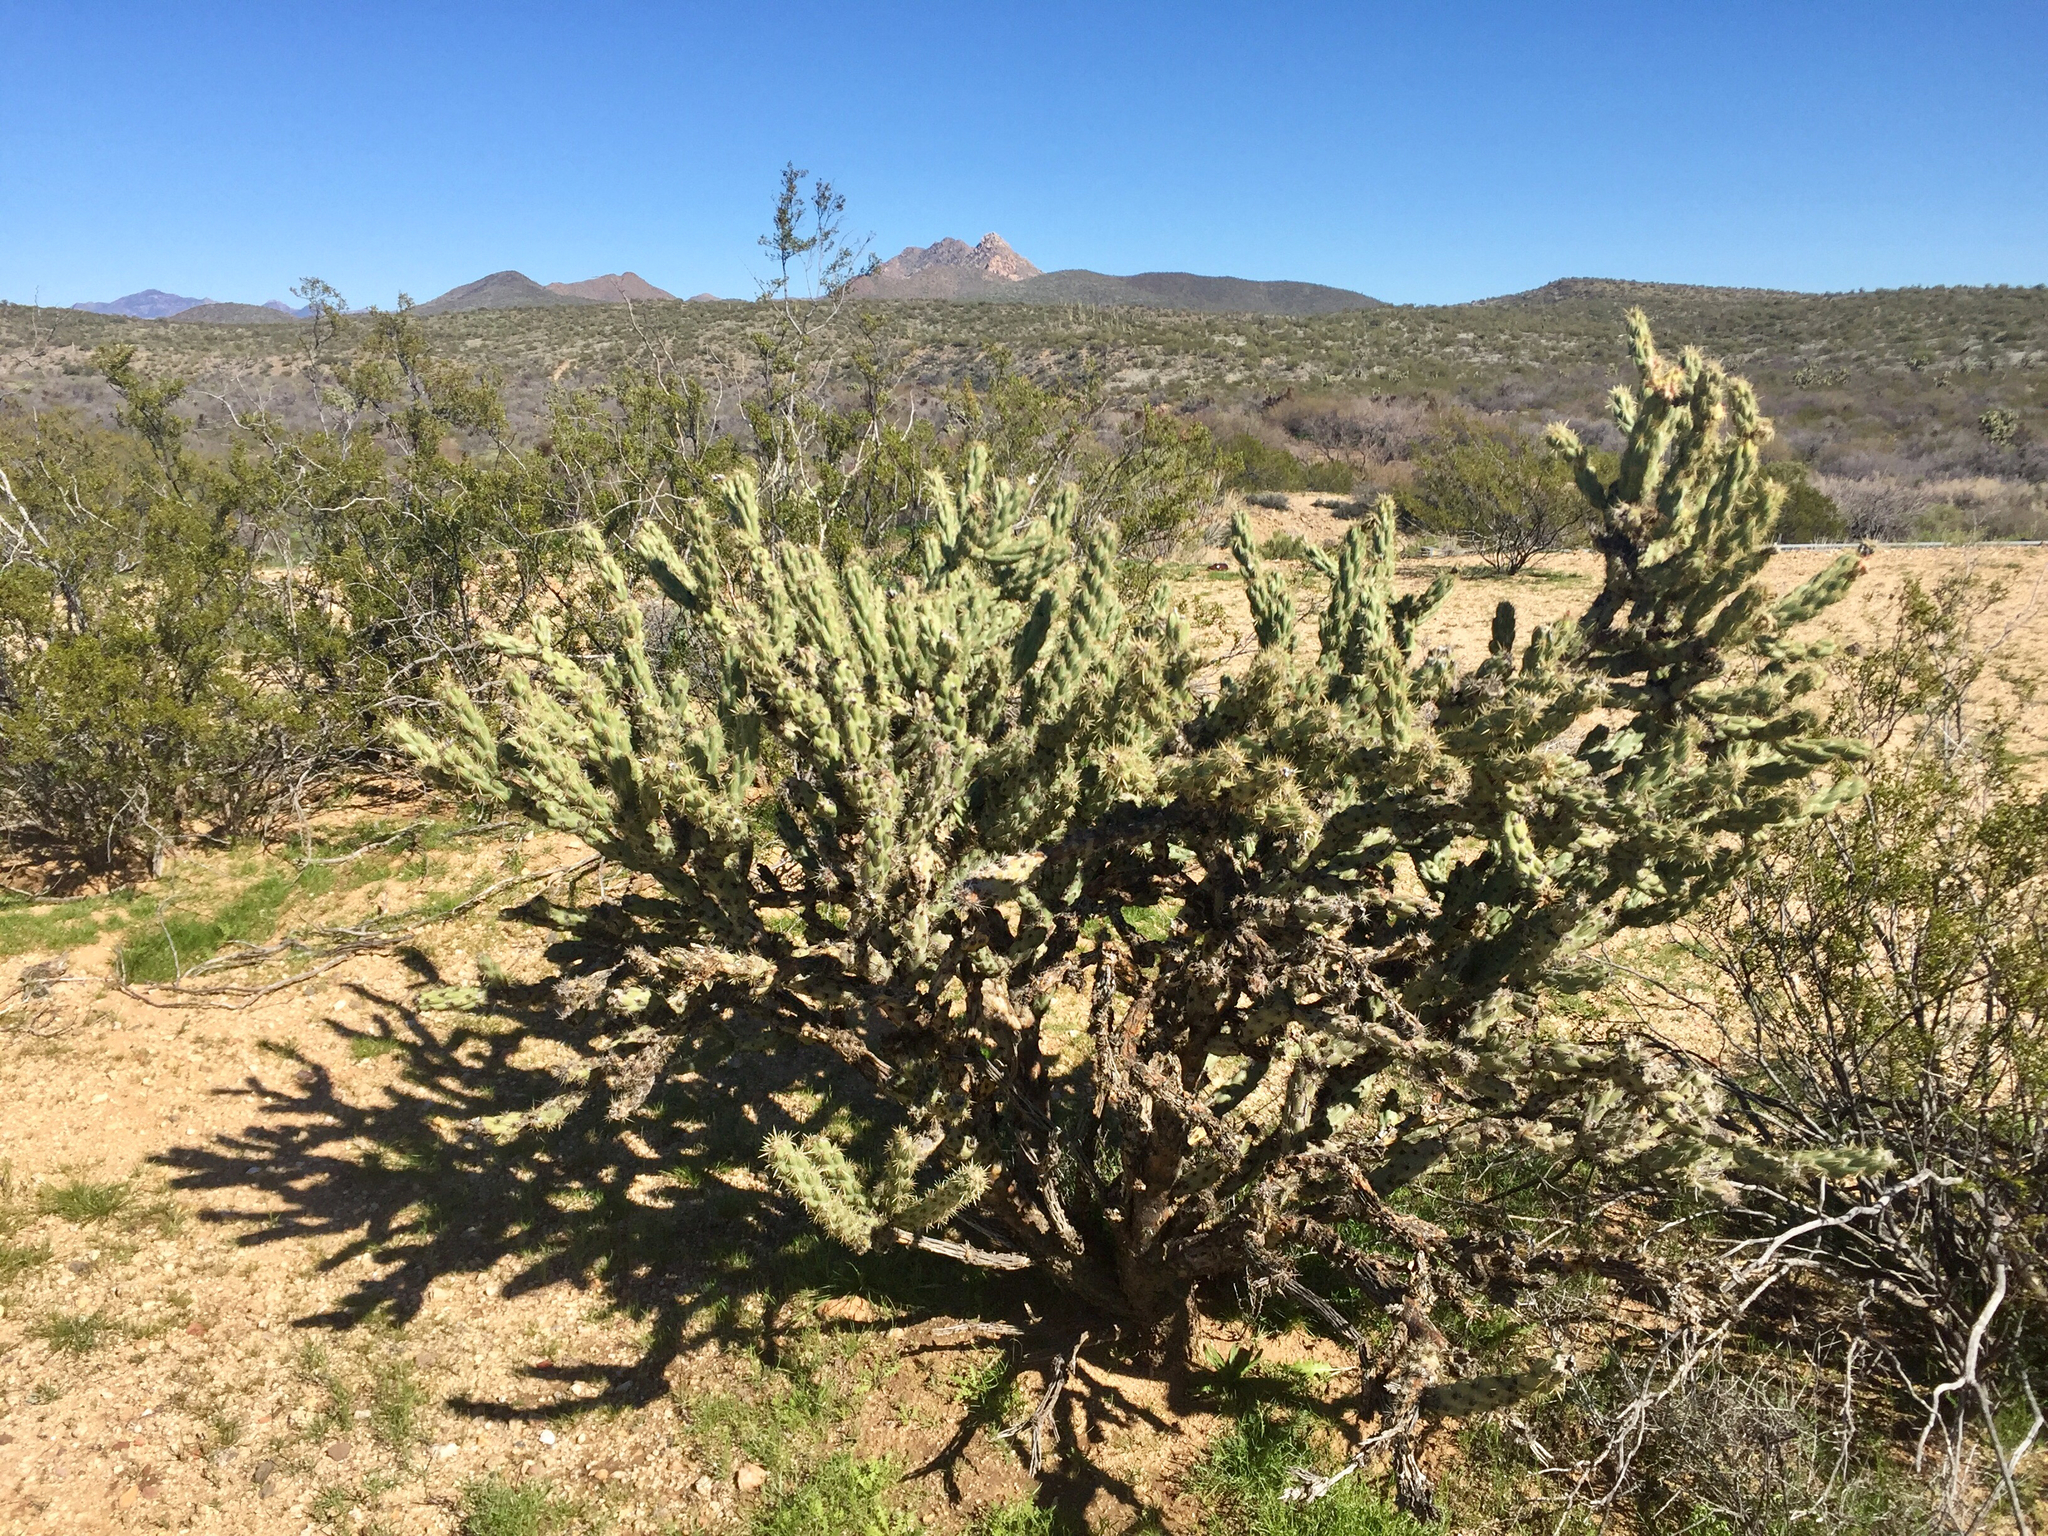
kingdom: Plantae
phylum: Tracheophyta
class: Magnoliopsida
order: Caryophyllales
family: Cactaceae
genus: Cylindropuntia
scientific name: Cylindropuntia acanthocarpa
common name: Buckhorn cholla
